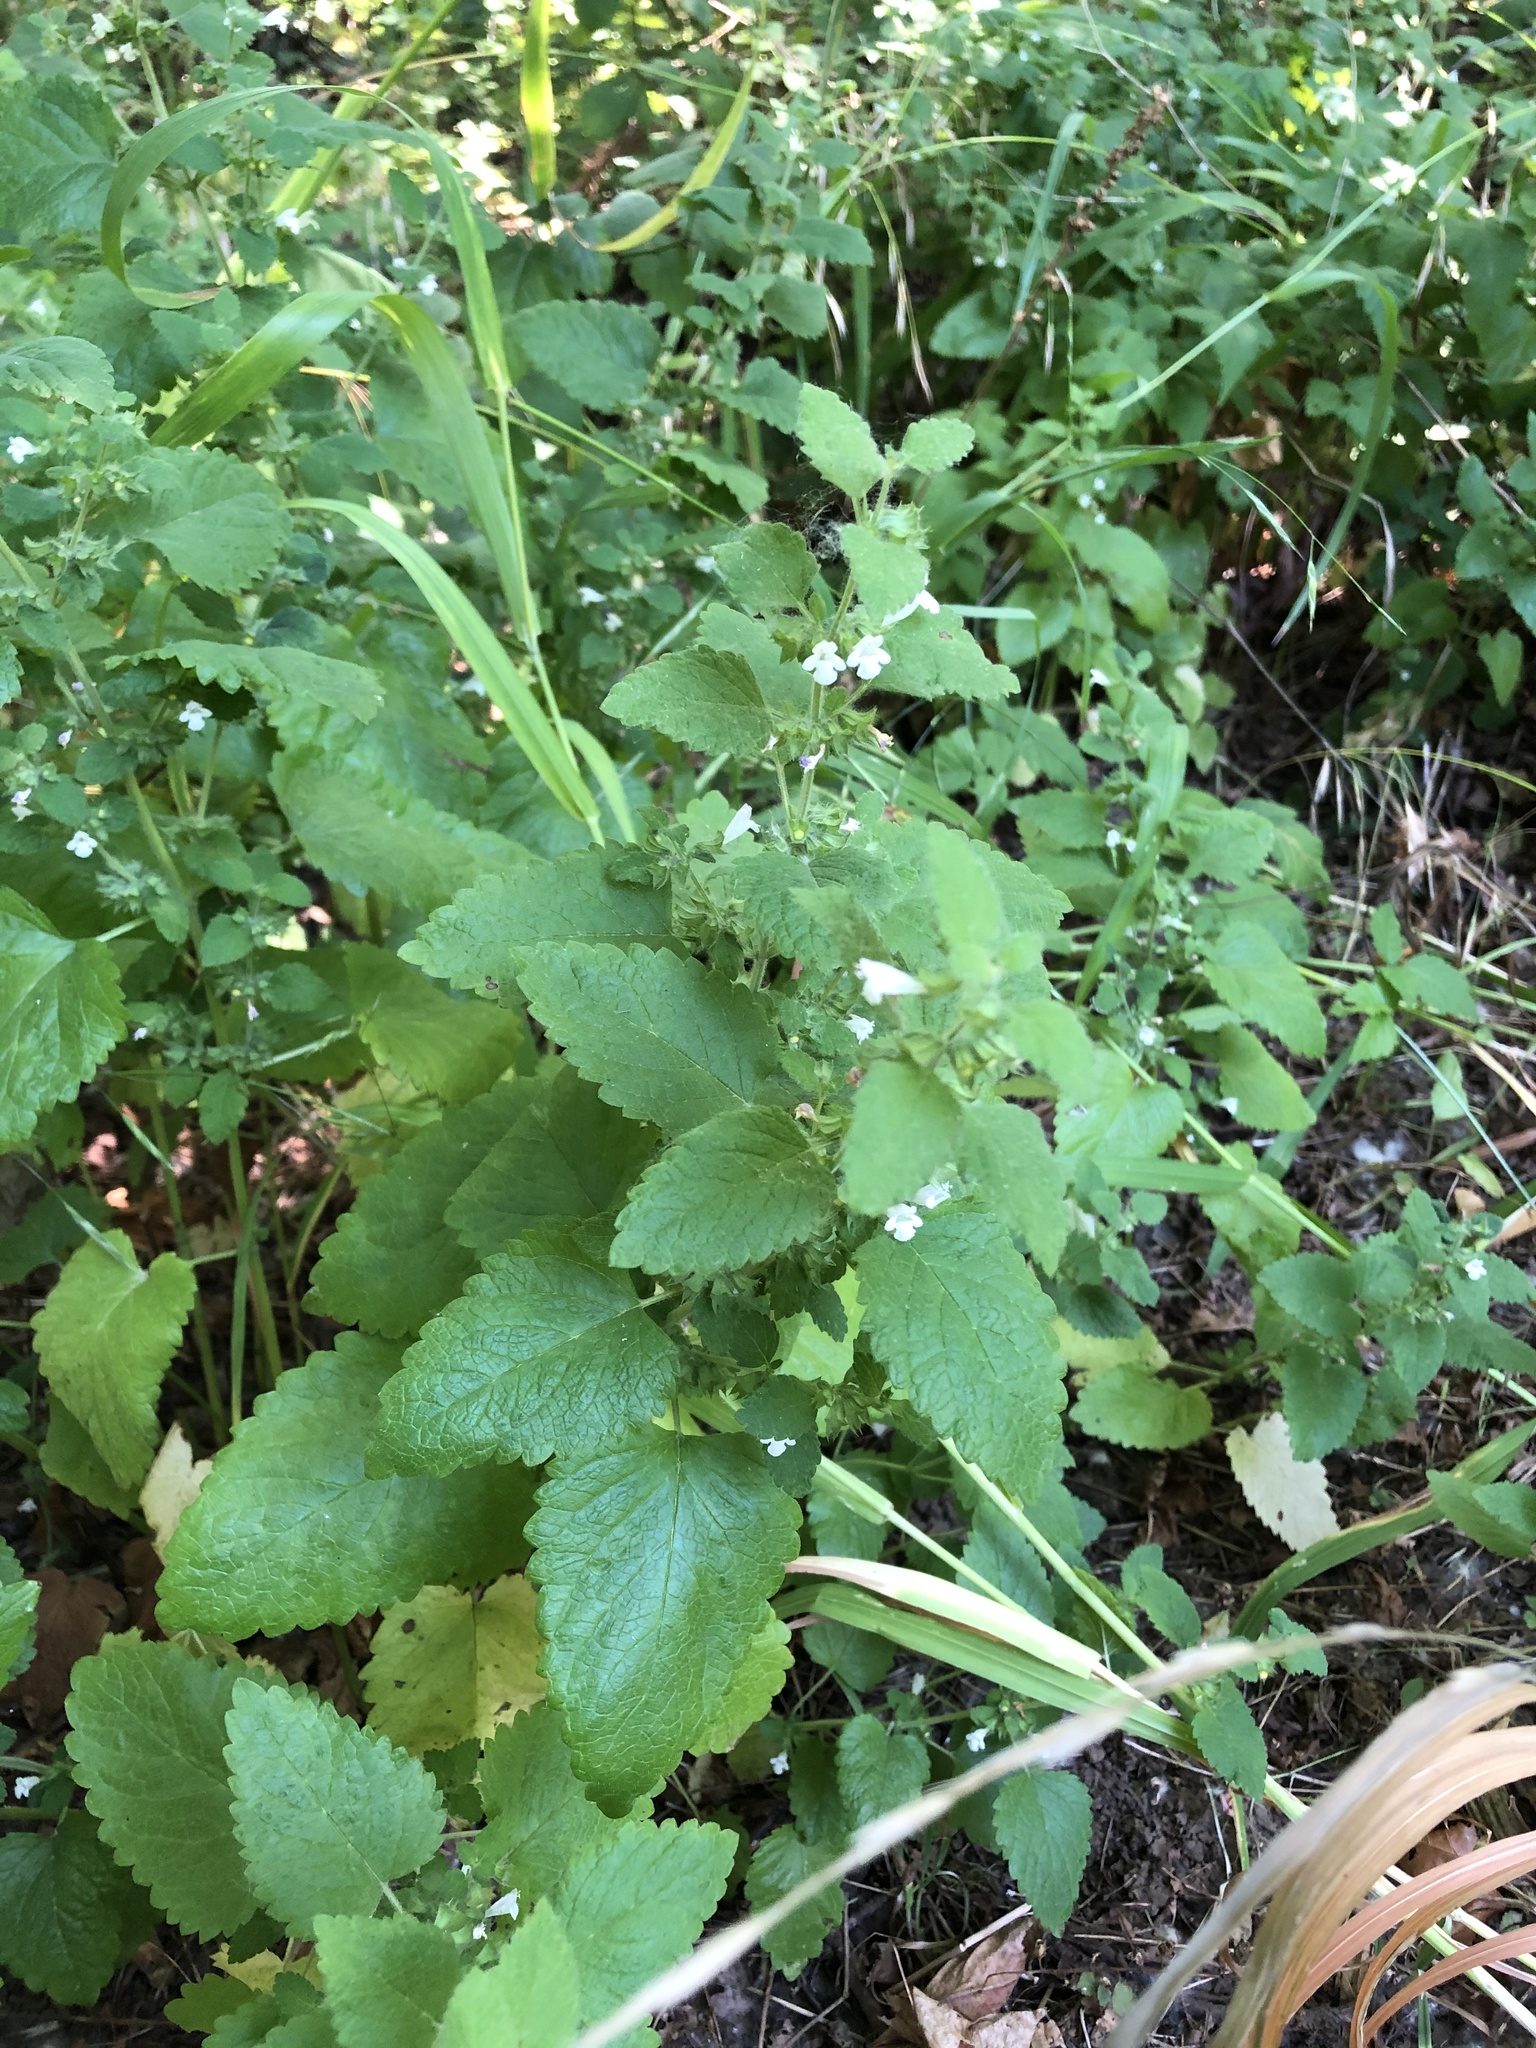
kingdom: Plantae
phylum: Tracheophyta
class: Magnoliopsida
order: Lamiales
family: Lamiaceae
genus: Melissa
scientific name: Melissa officinalis
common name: Balm
